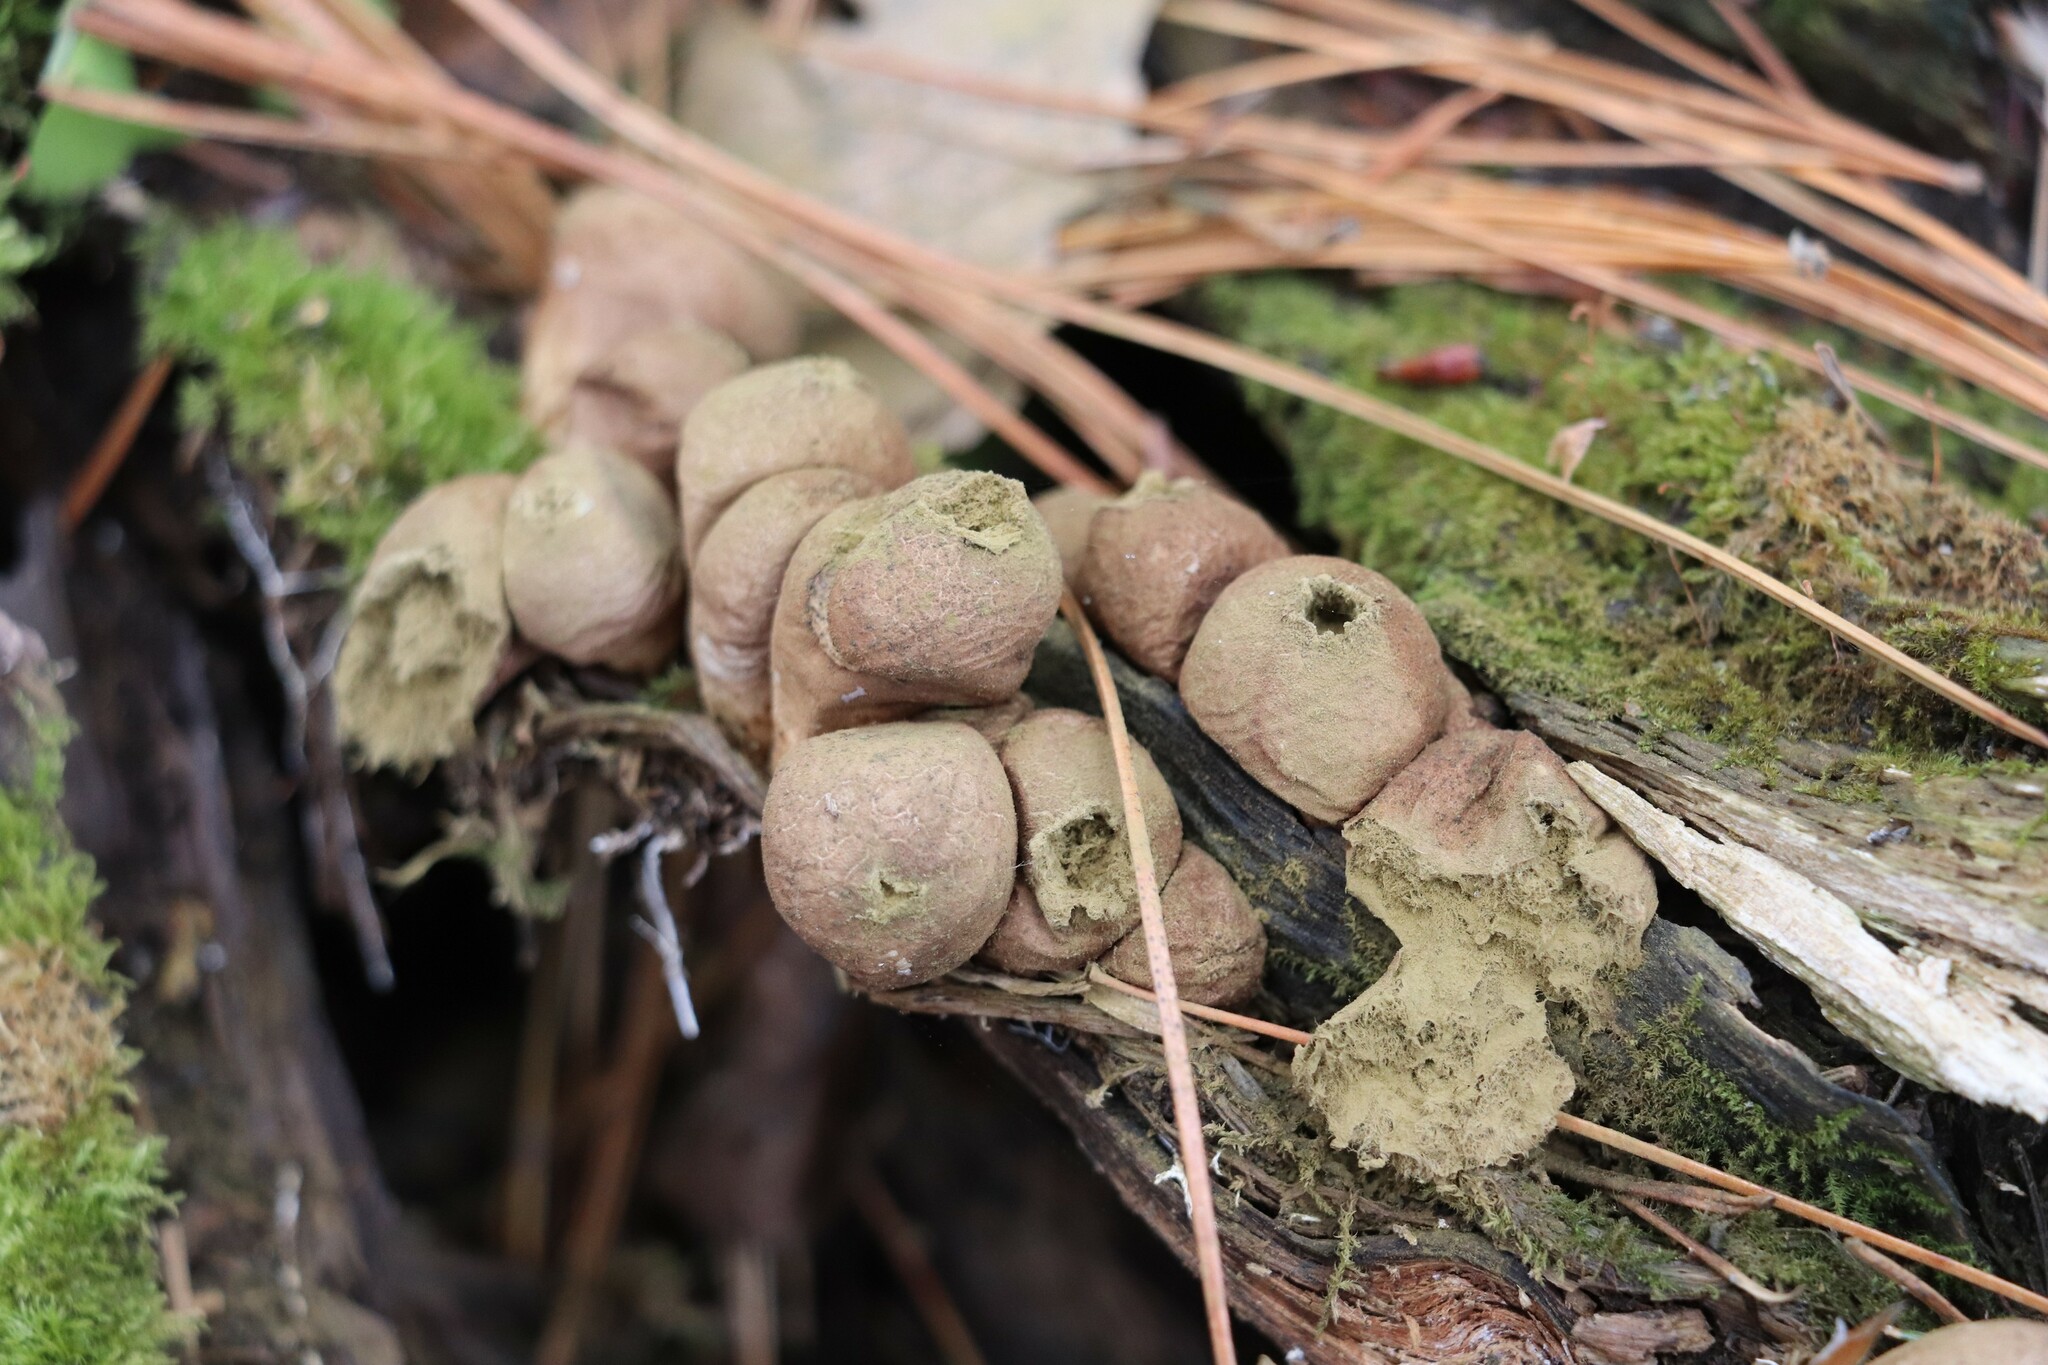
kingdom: Fungi
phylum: Basidiomycota
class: Agaricomycetes
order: Agaricales
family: Lycoperdaceae
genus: Apioperdon
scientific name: Apioperdon pyriforme
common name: Pear-shaped puffball
